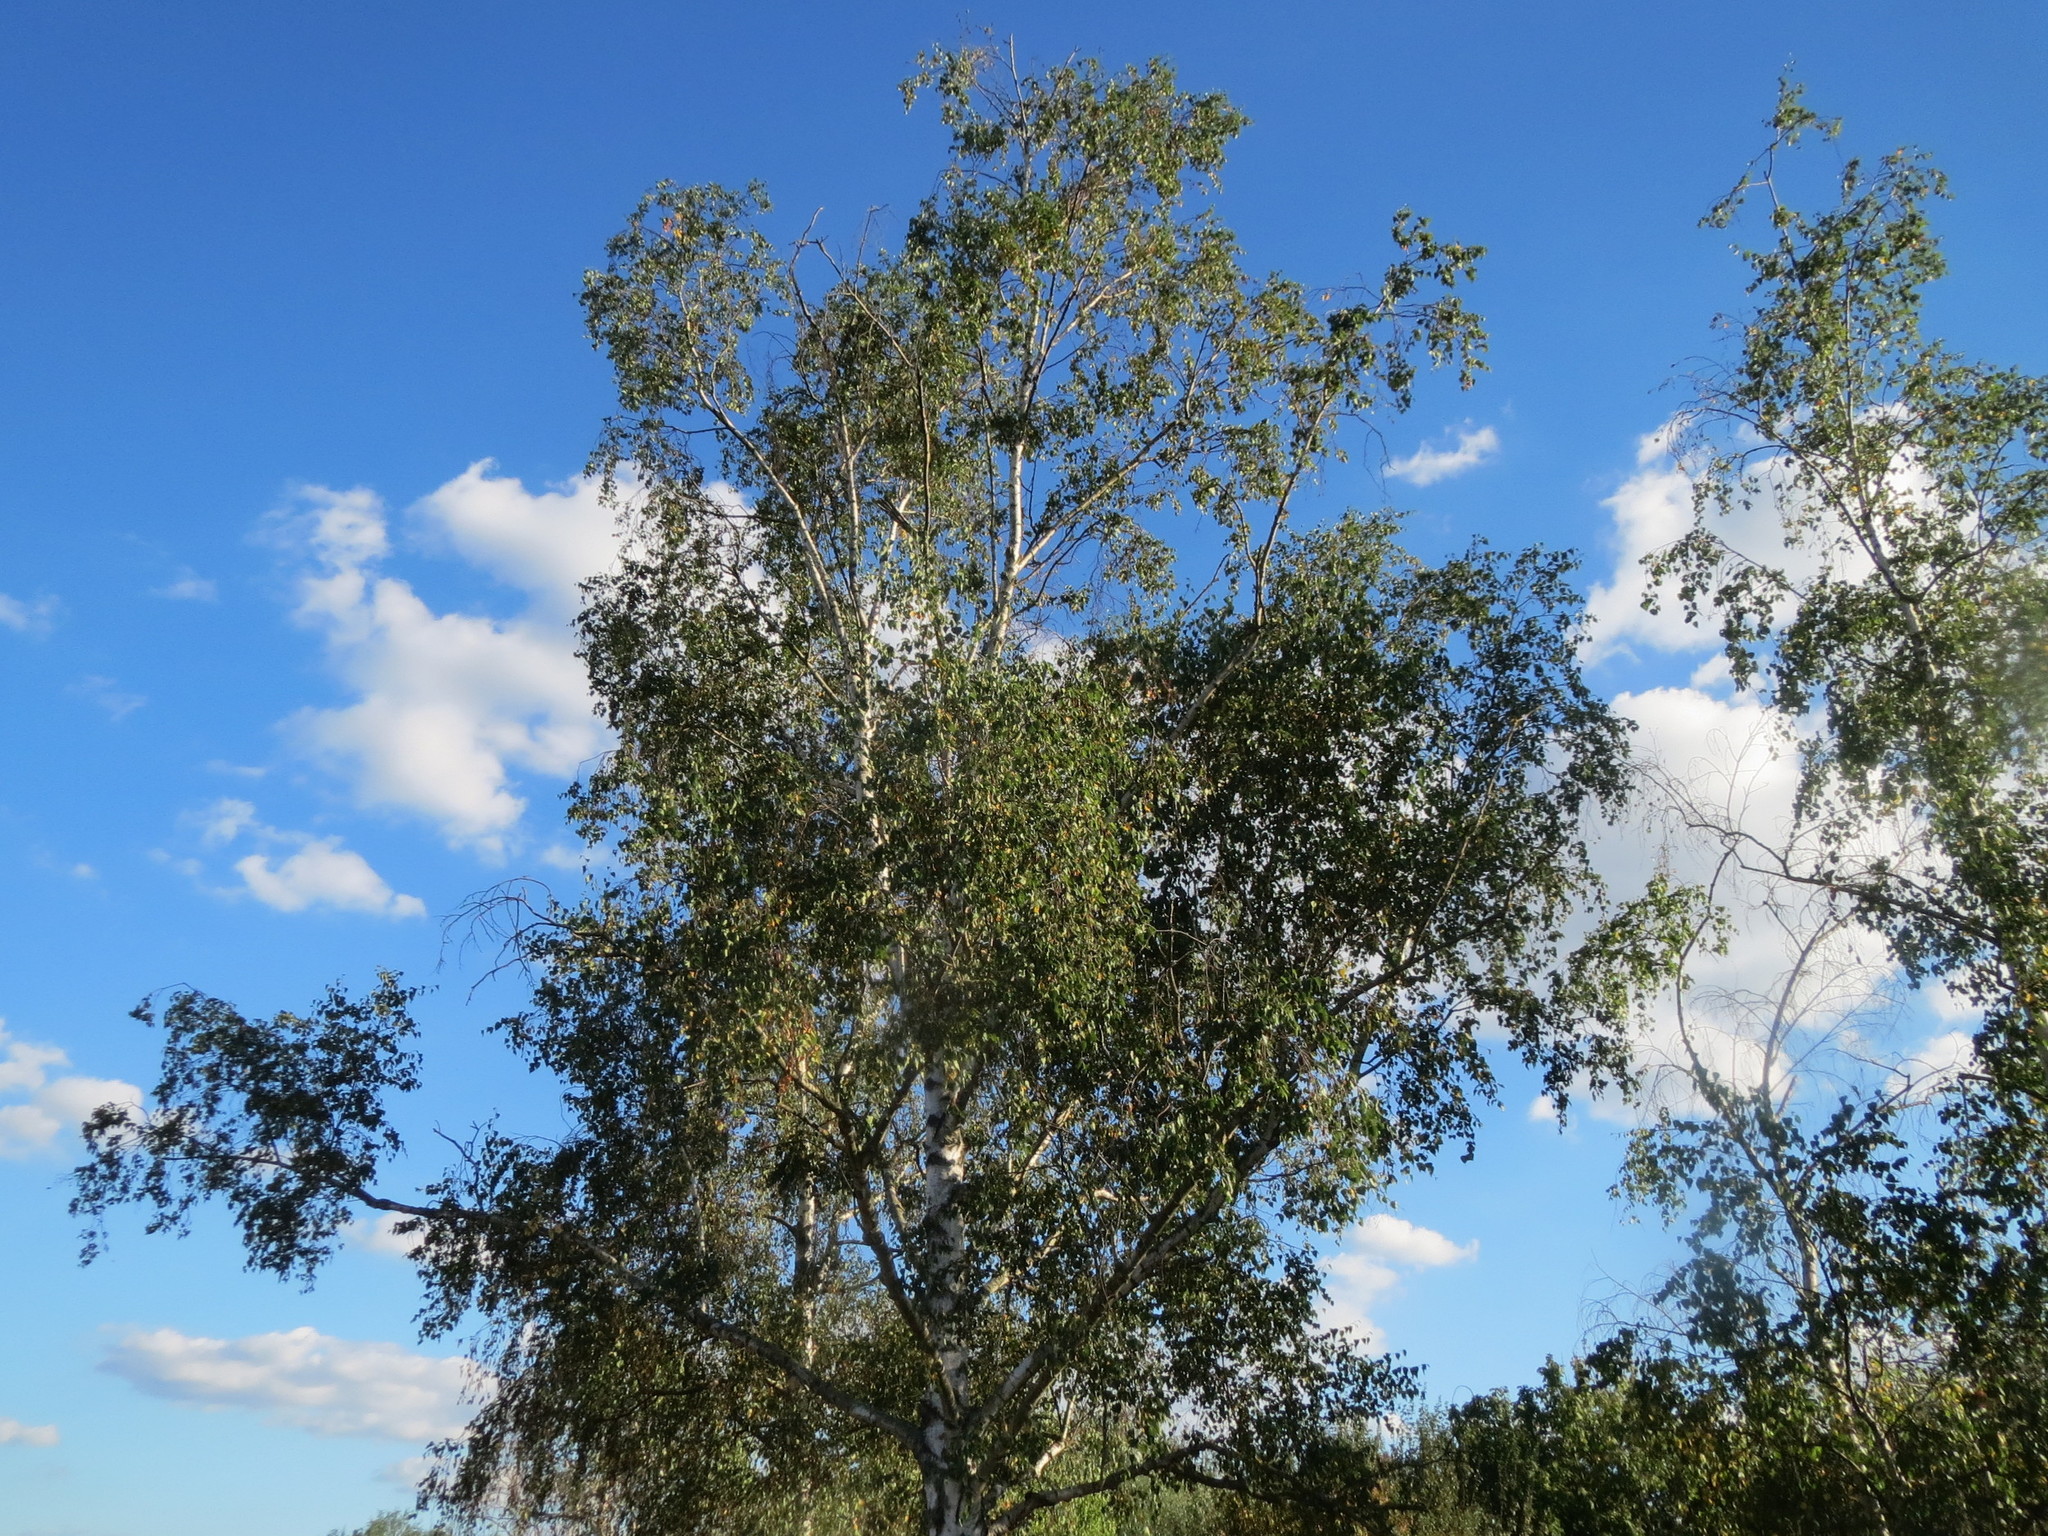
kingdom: Plantae
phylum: Tracheophyta
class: Magnoliopsida
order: Fagales
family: Betulaceae
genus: Betula
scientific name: Betula pendula
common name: Silver birch
